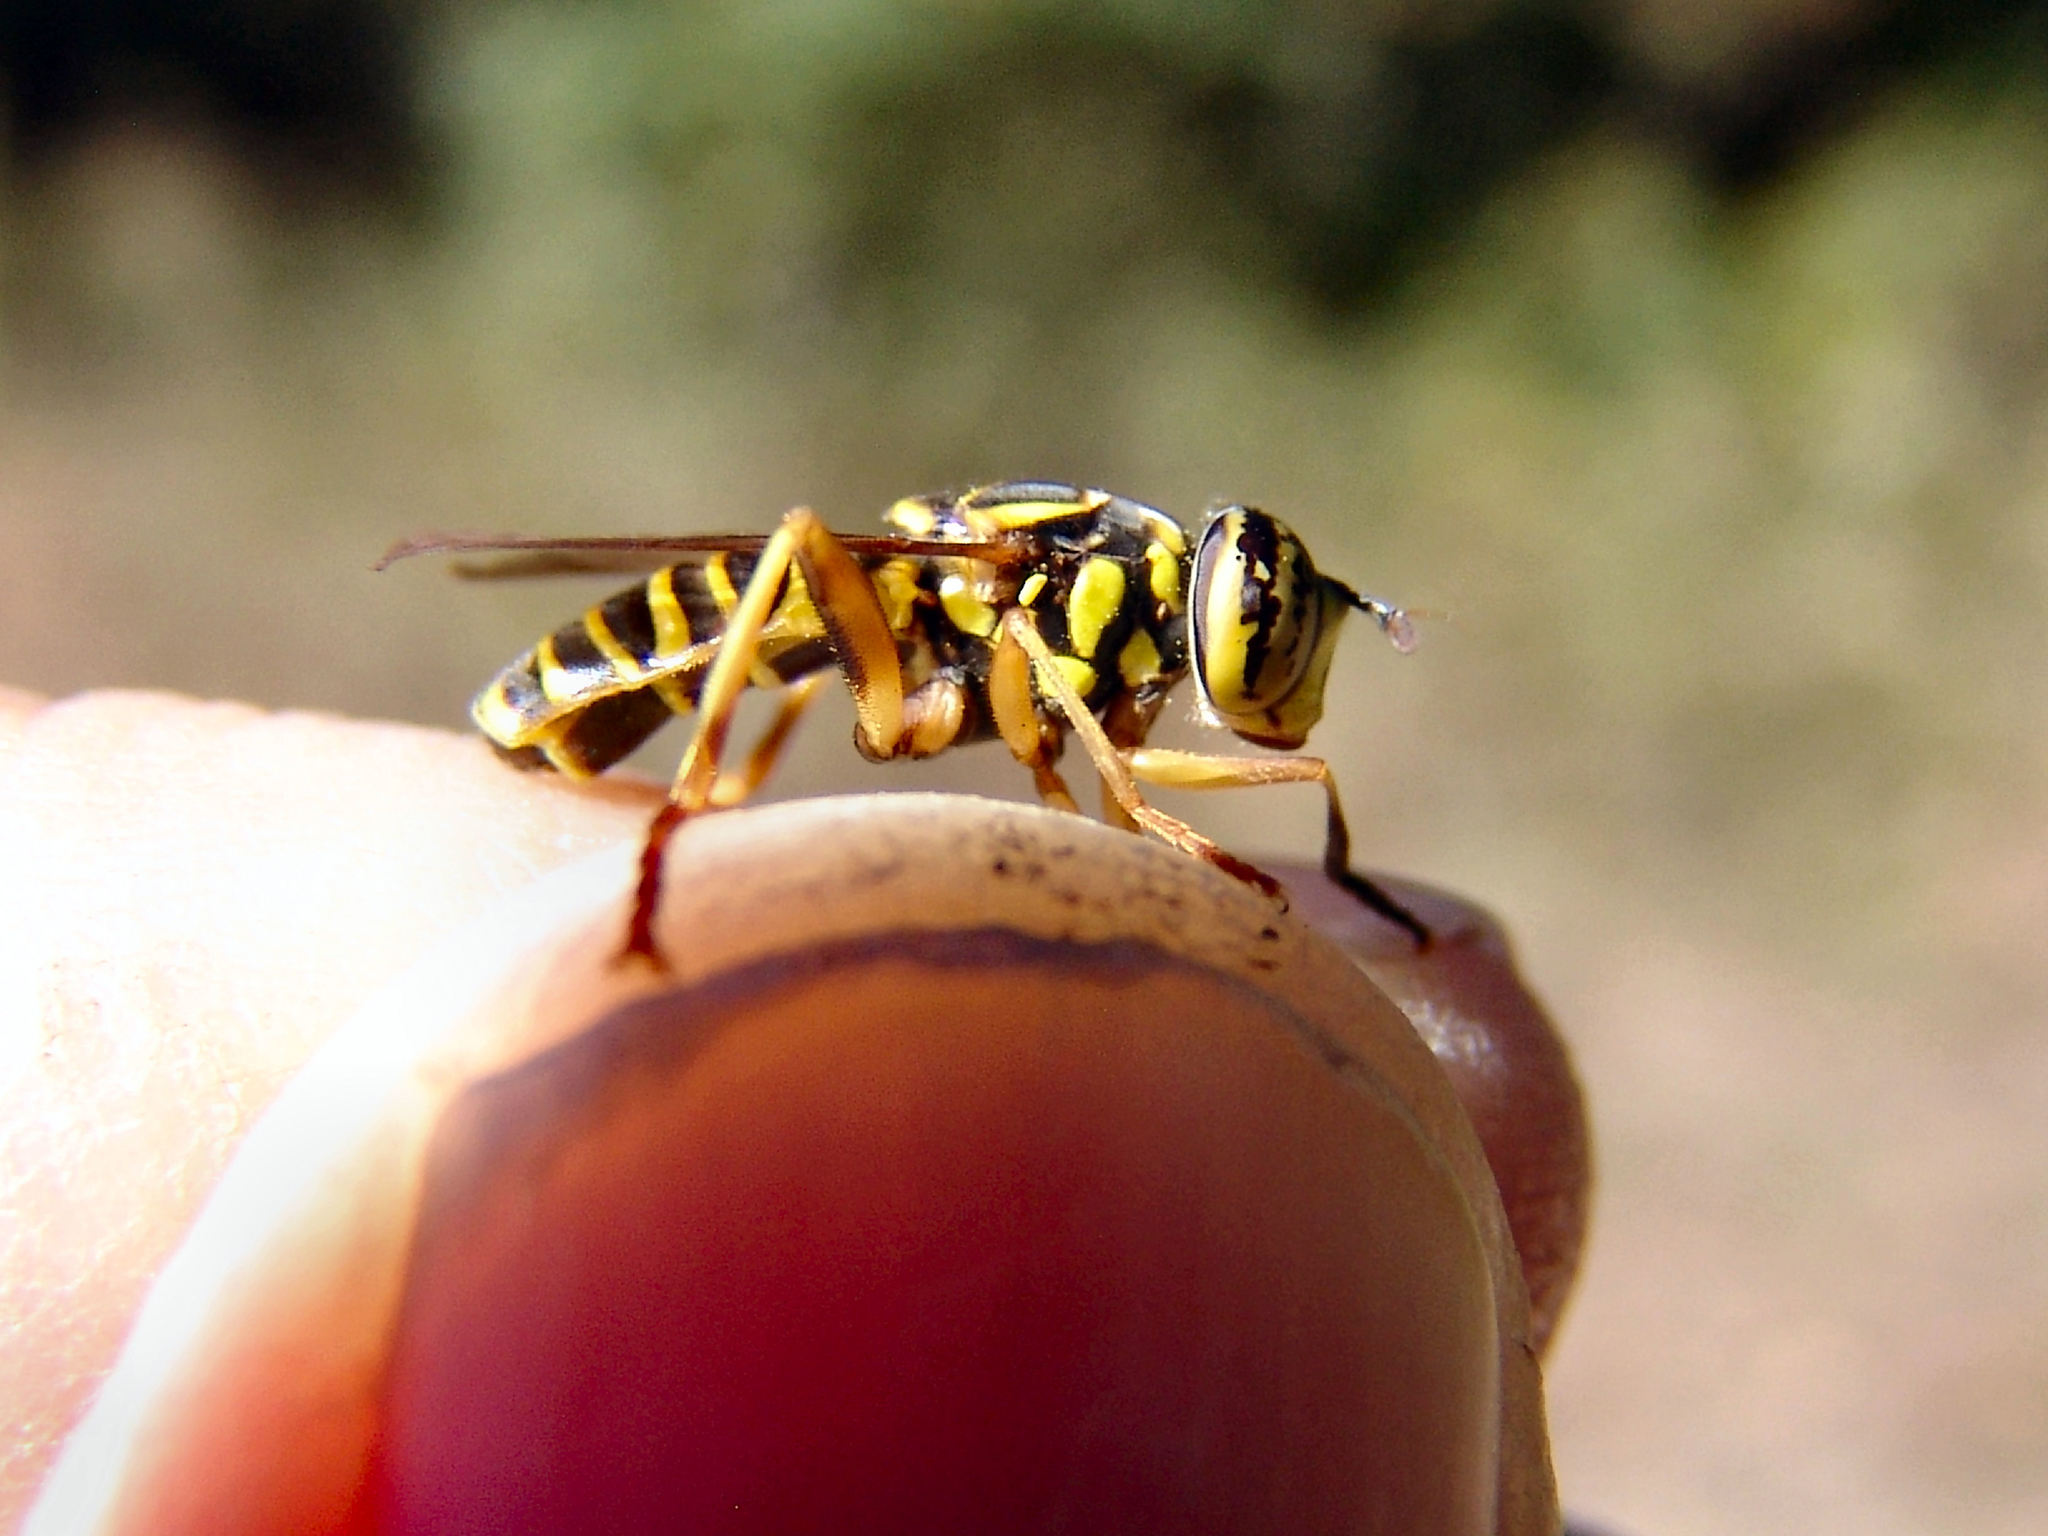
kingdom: Animalia
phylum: Arthropoda
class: Insecta
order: Diptera
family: Syrphidae
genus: Spilomyia
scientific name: Spilomyia longicornis
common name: Eastern hornet fly
